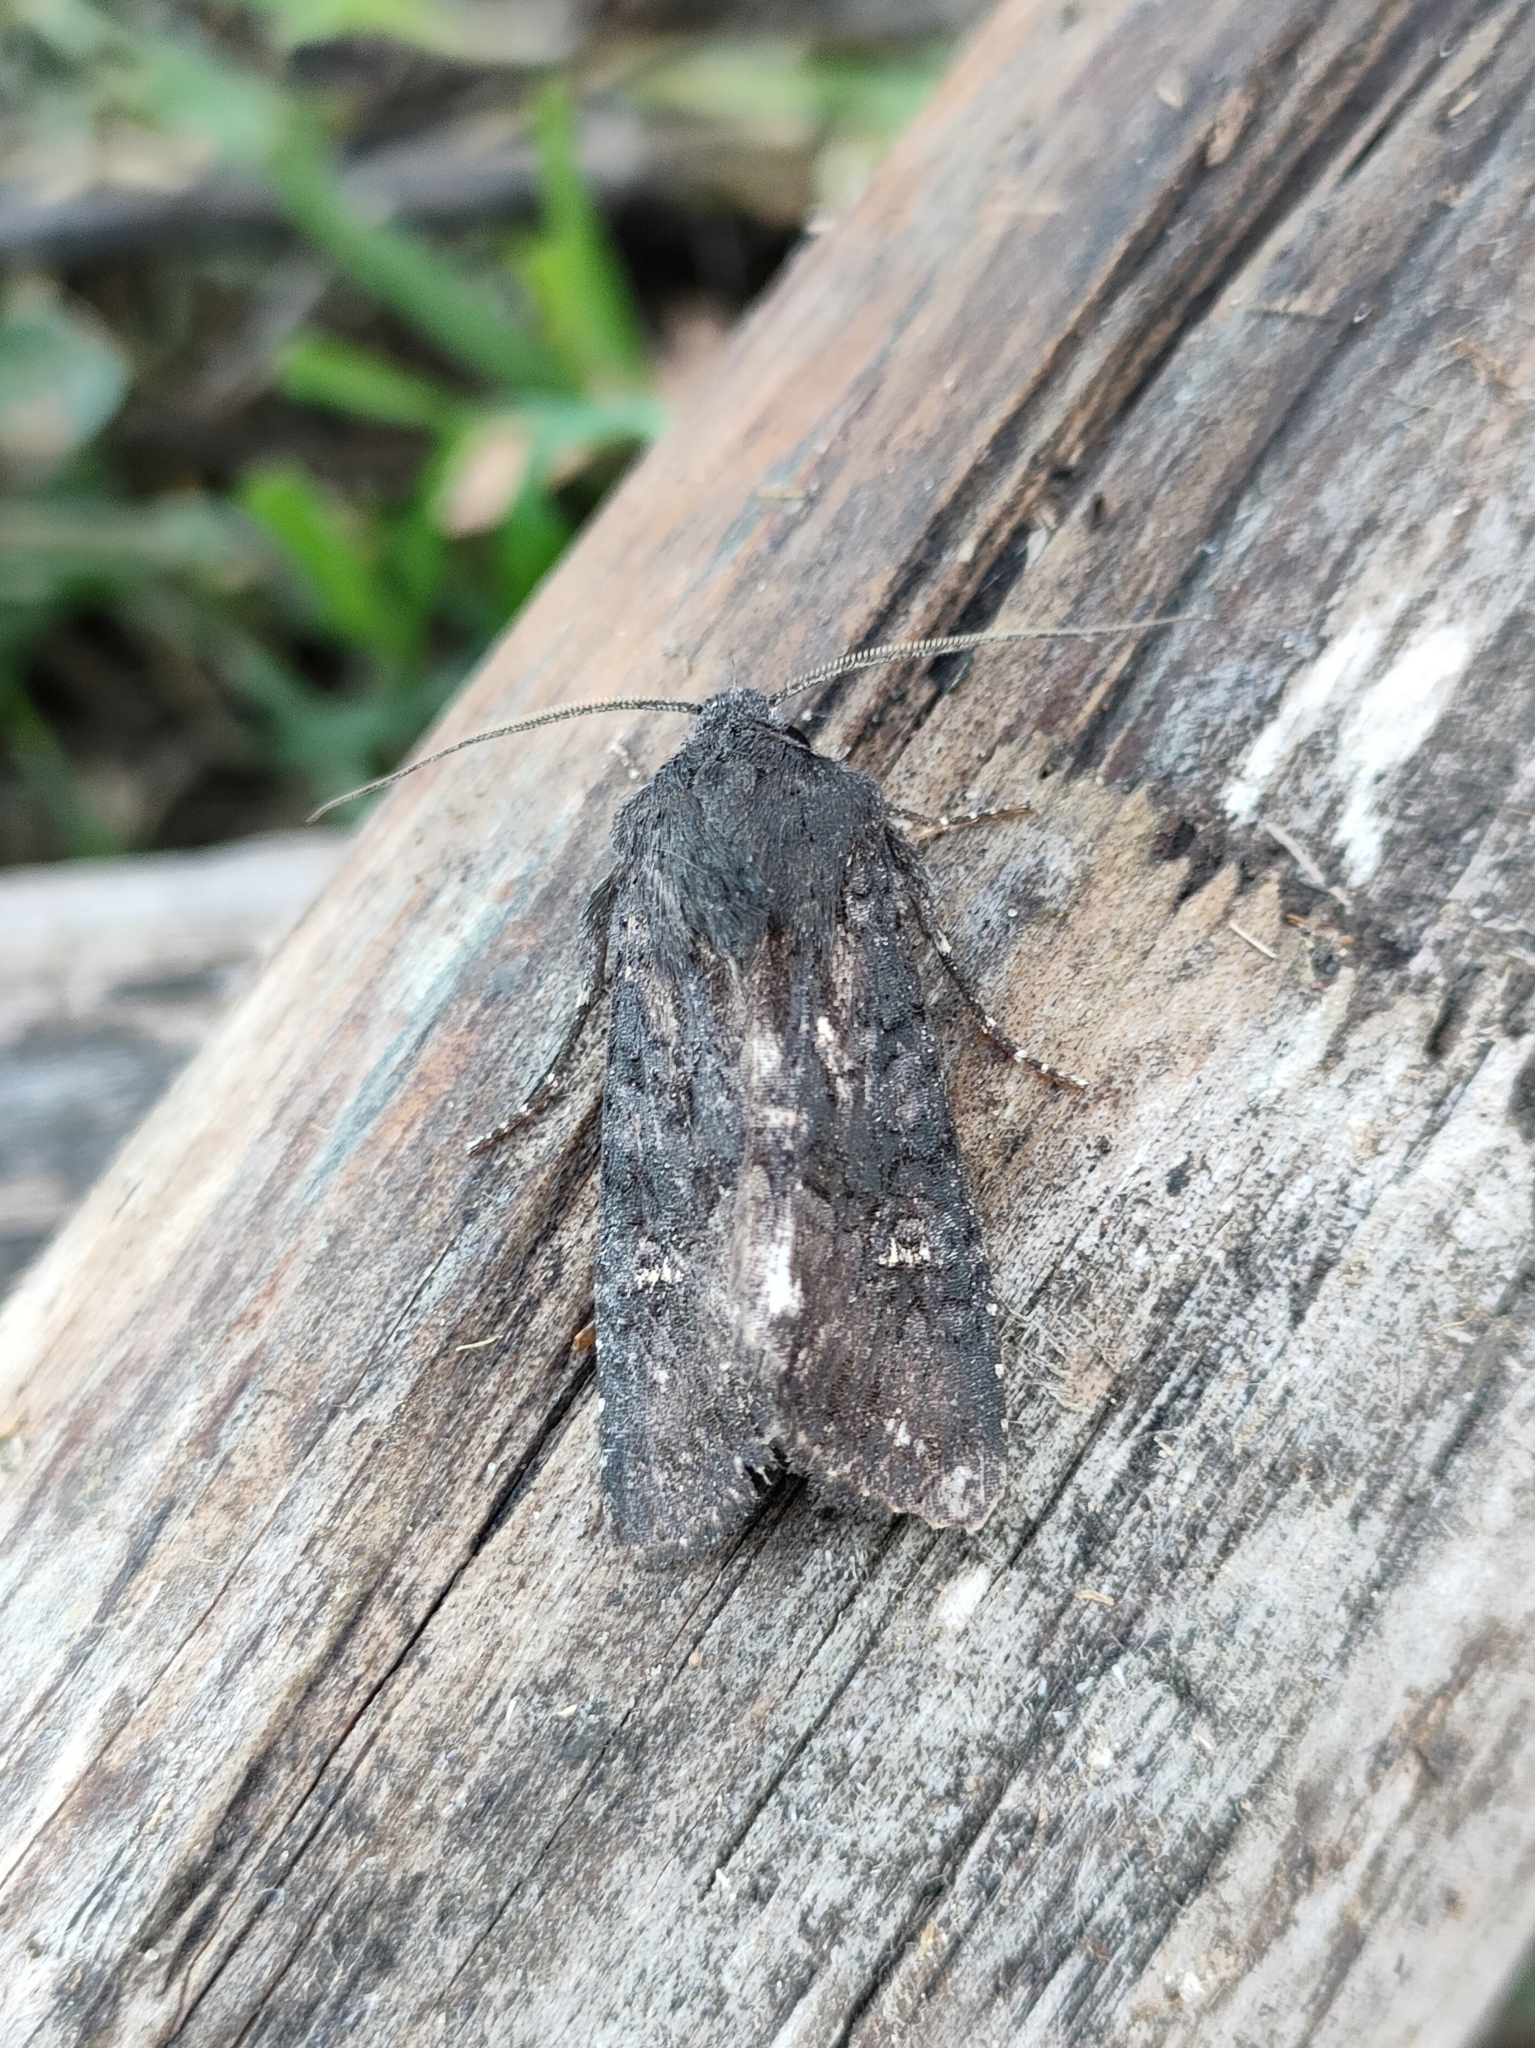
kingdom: Animalia
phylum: Arthropoda
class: Insecta
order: Lepidoptera
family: Noctuidae
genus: Aporophyla
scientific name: Aporophyla nigra
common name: Black rustic
